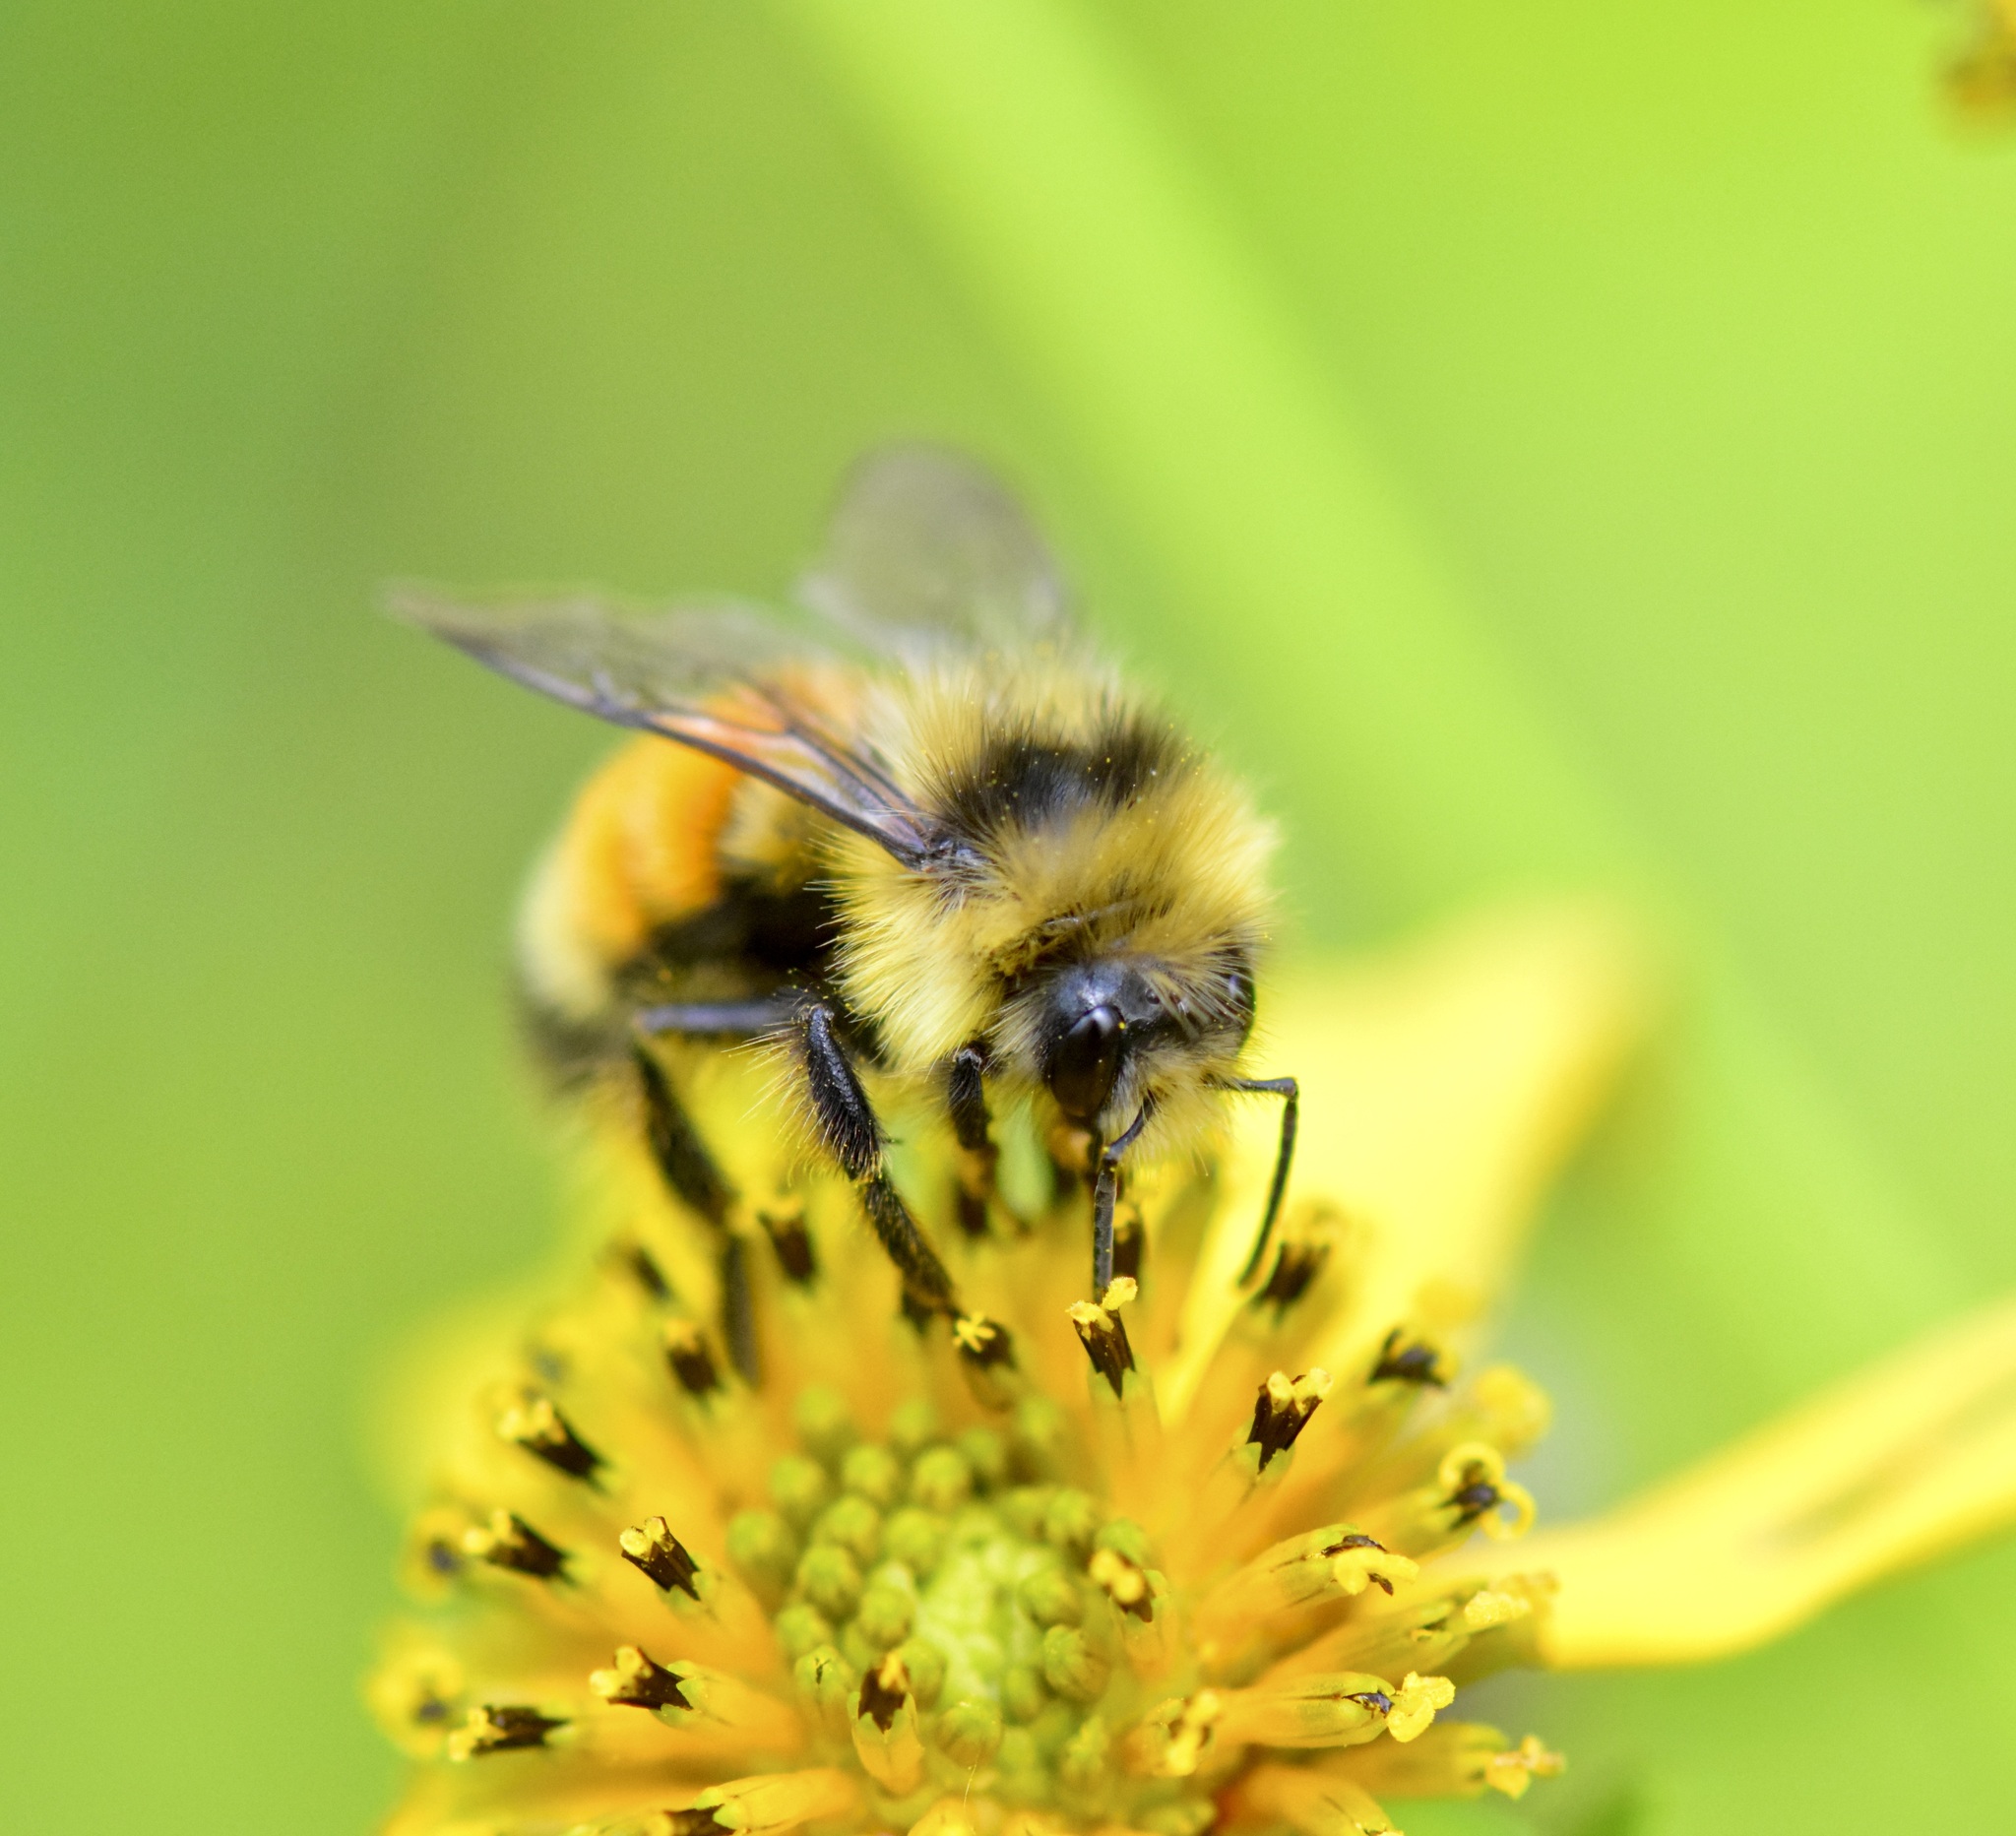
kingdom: Animalia
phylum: Arthropoda
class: Insecta
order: Hymenoptera
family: Apidae
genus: Bombus
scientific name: Bombus ternarius
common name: Tri-colored bumble bee
